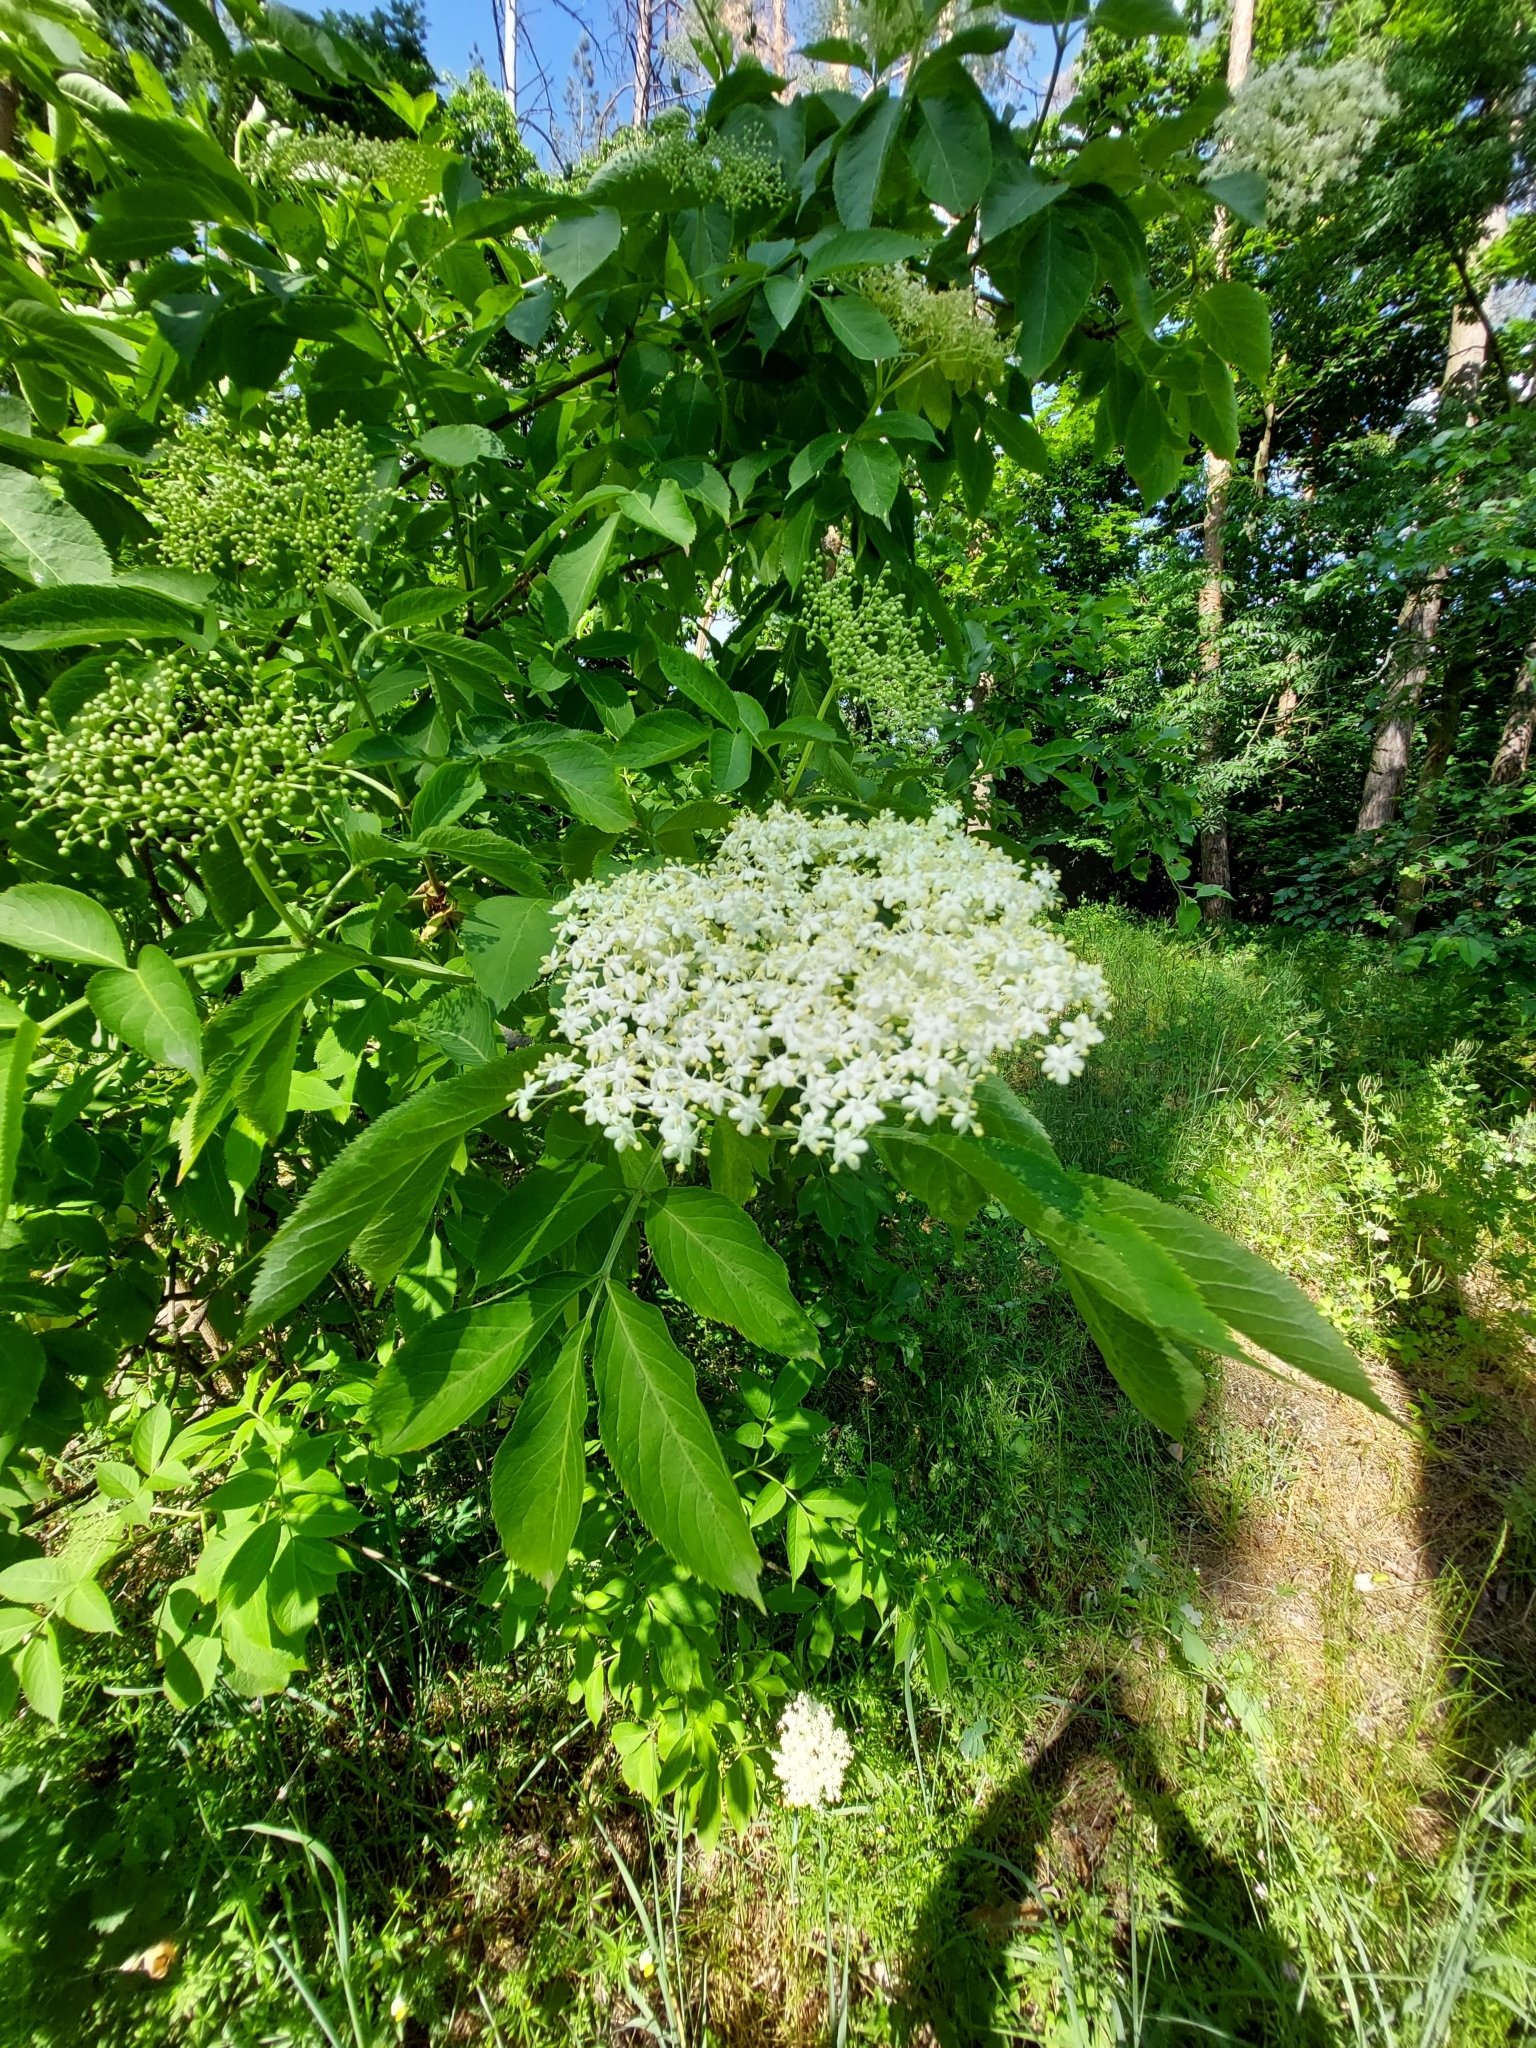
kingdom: Plantae
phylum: Tracheophyta
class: Magnoliopsida
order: Dipsacales
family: Viburnaceae
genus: Sambucus
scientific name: Sambucus nigra
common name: Elder
